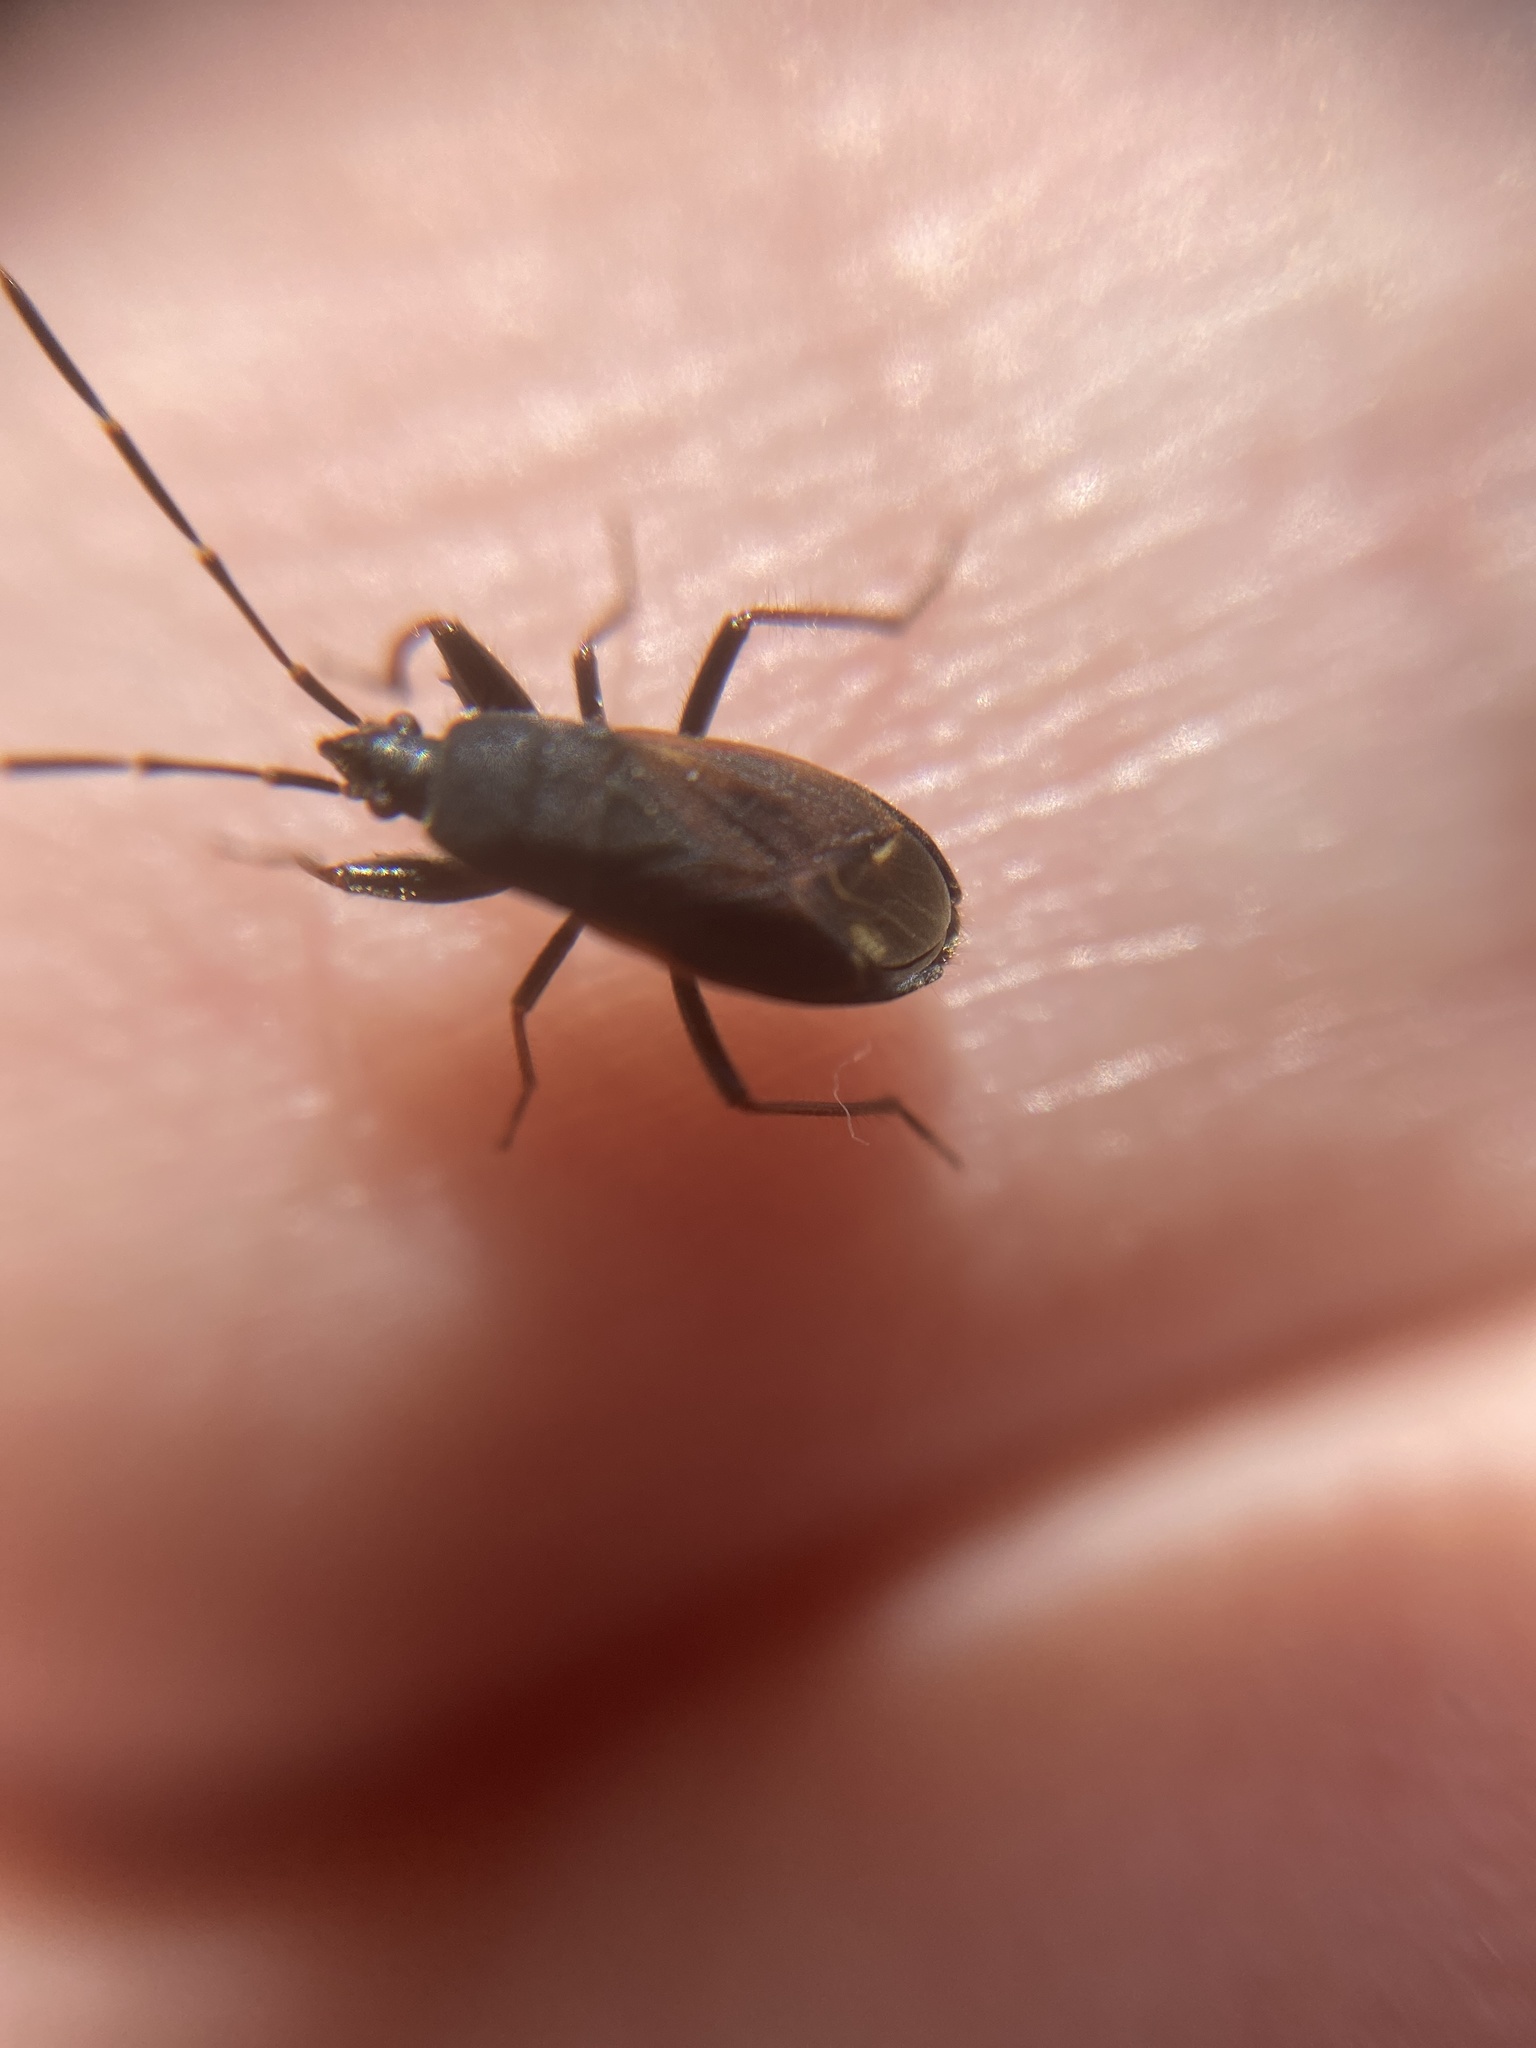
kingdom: Animalia
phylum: Arthropoda
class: Insecta
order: Hemiptera
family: Rhyparochromidae
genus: Eremocoris
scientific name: Eremocoris plebejus
